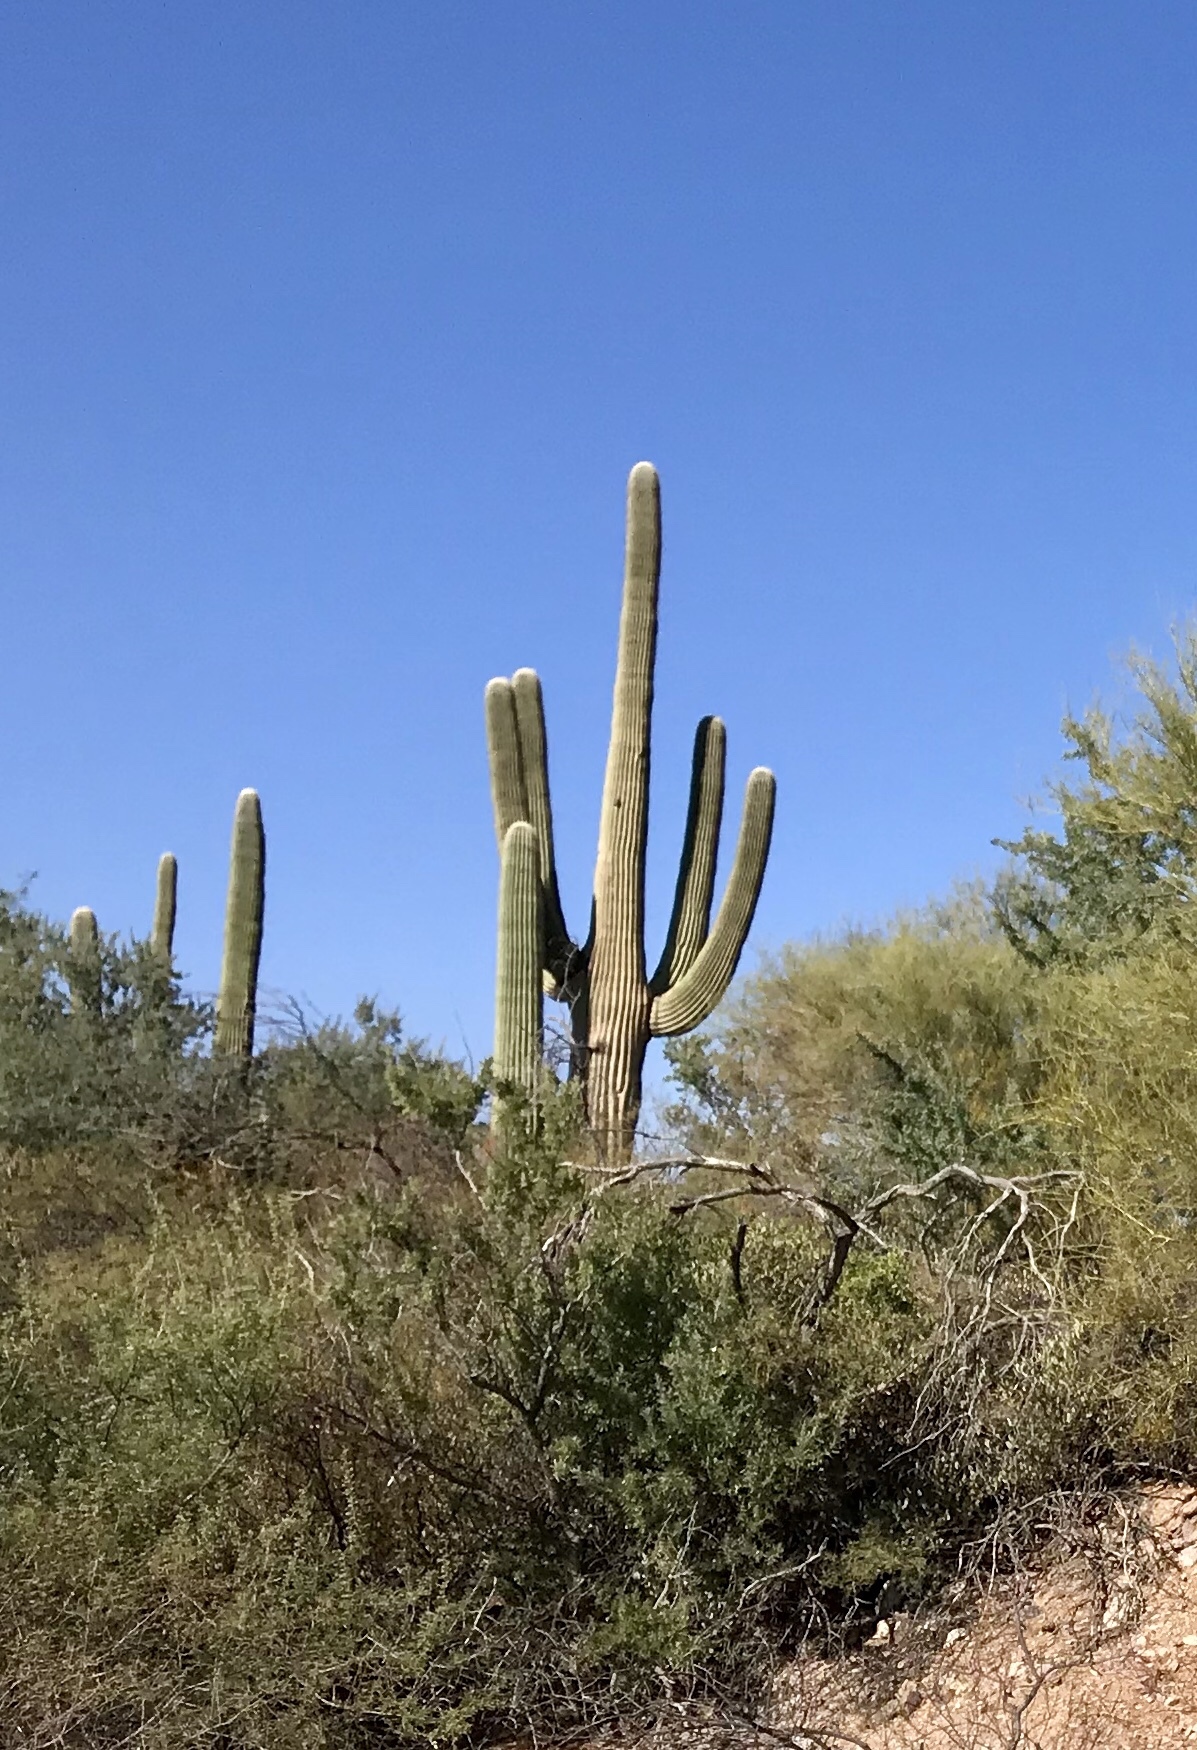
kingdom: Plantae
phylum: Tracheophyta
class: Magnoliopsida
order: Caryophyllales
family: Cactaceae
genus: Carnegiea
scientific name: Carnegiea gigantea
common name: Saguaro
